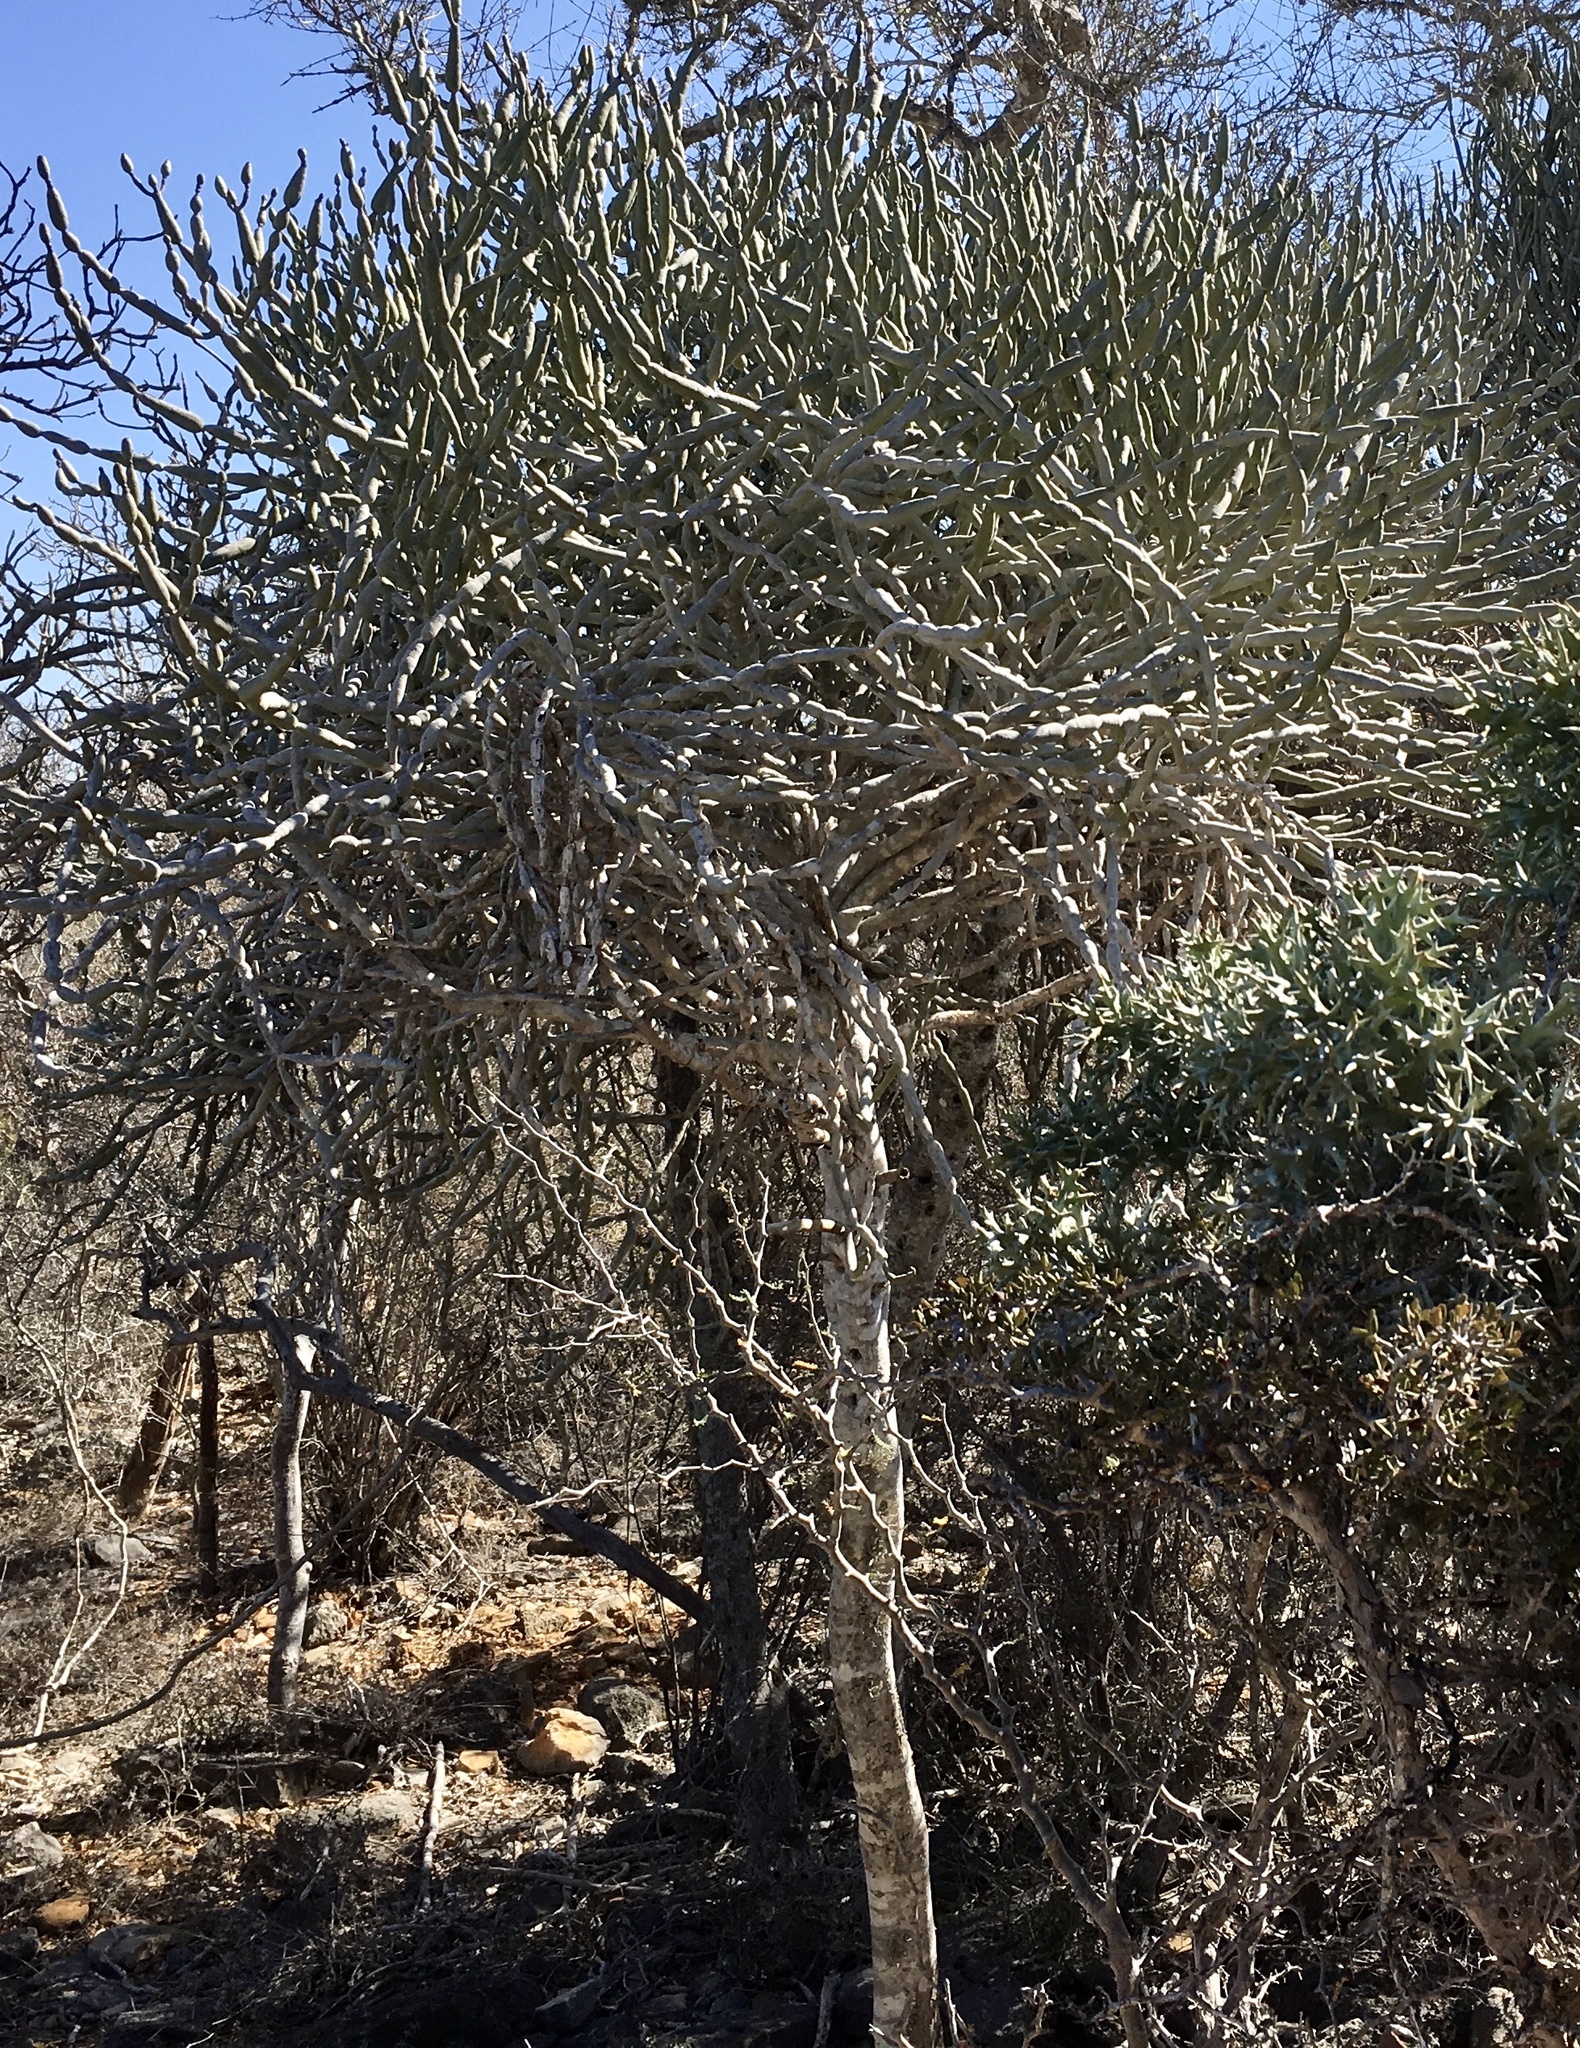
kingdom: Plantae
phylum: Tracheophyta
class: Magnoliopsida
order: Malpighiales
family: Euphorbiaceae
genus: Euphorbia
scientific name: Euphorbia alluaudii
